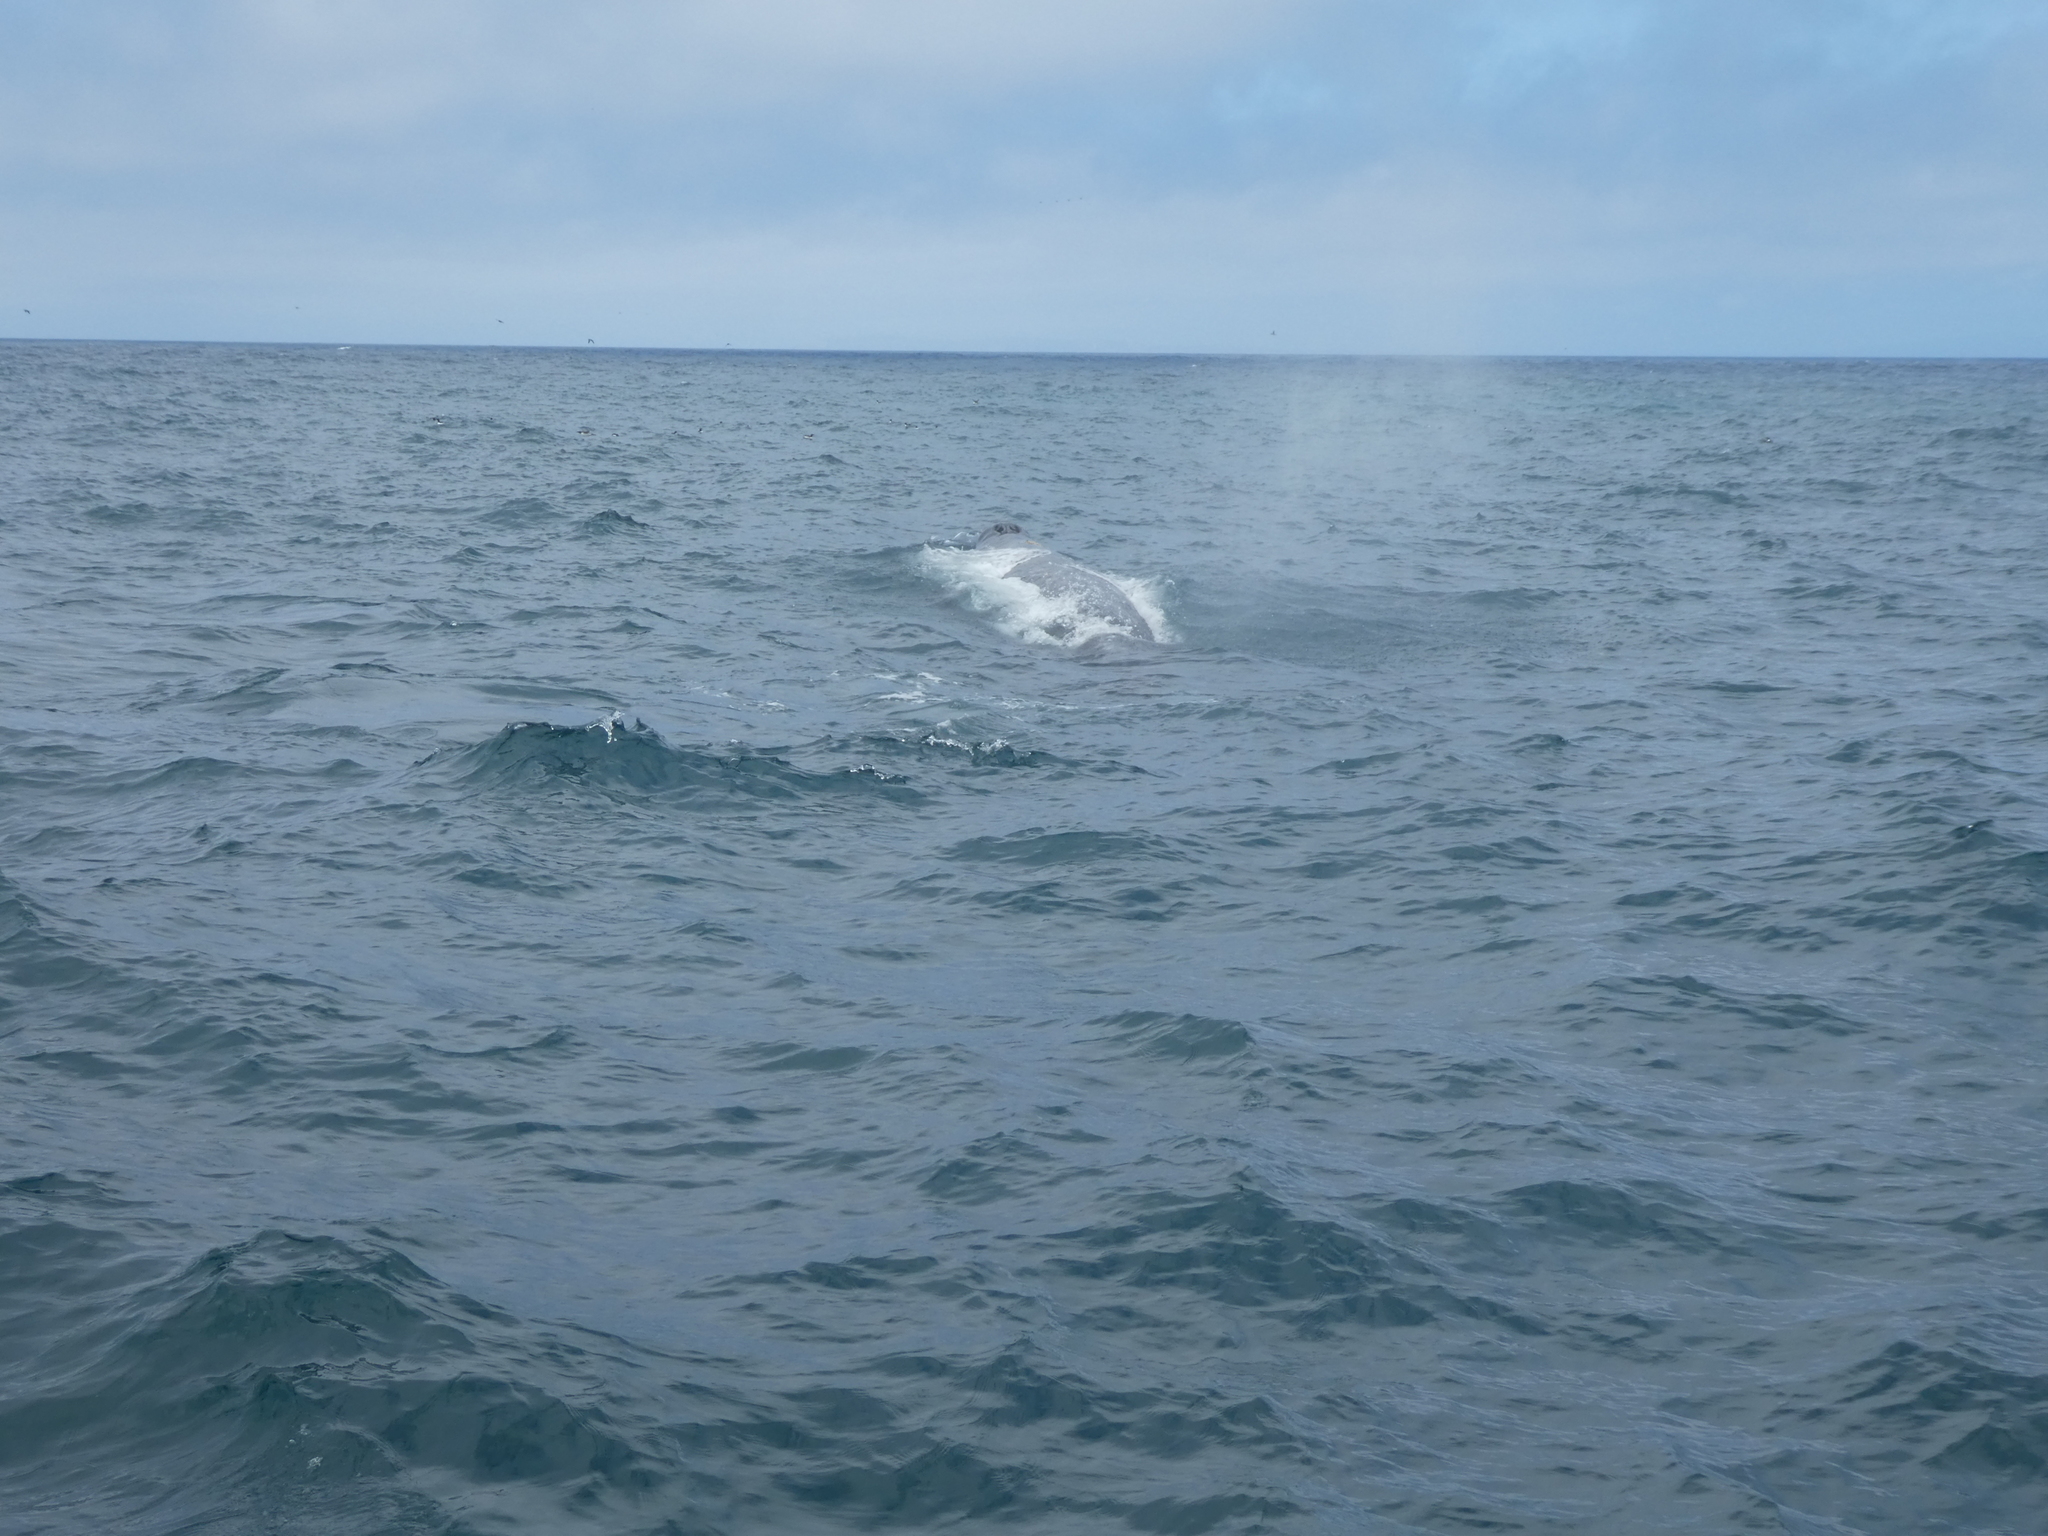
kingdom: Animalia
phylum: Chordata
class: Mammalia
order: Cetacea
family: Eschrichtiidae
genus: Eschrichtius
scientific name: Eschrichtius robustus
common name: Gray whale
